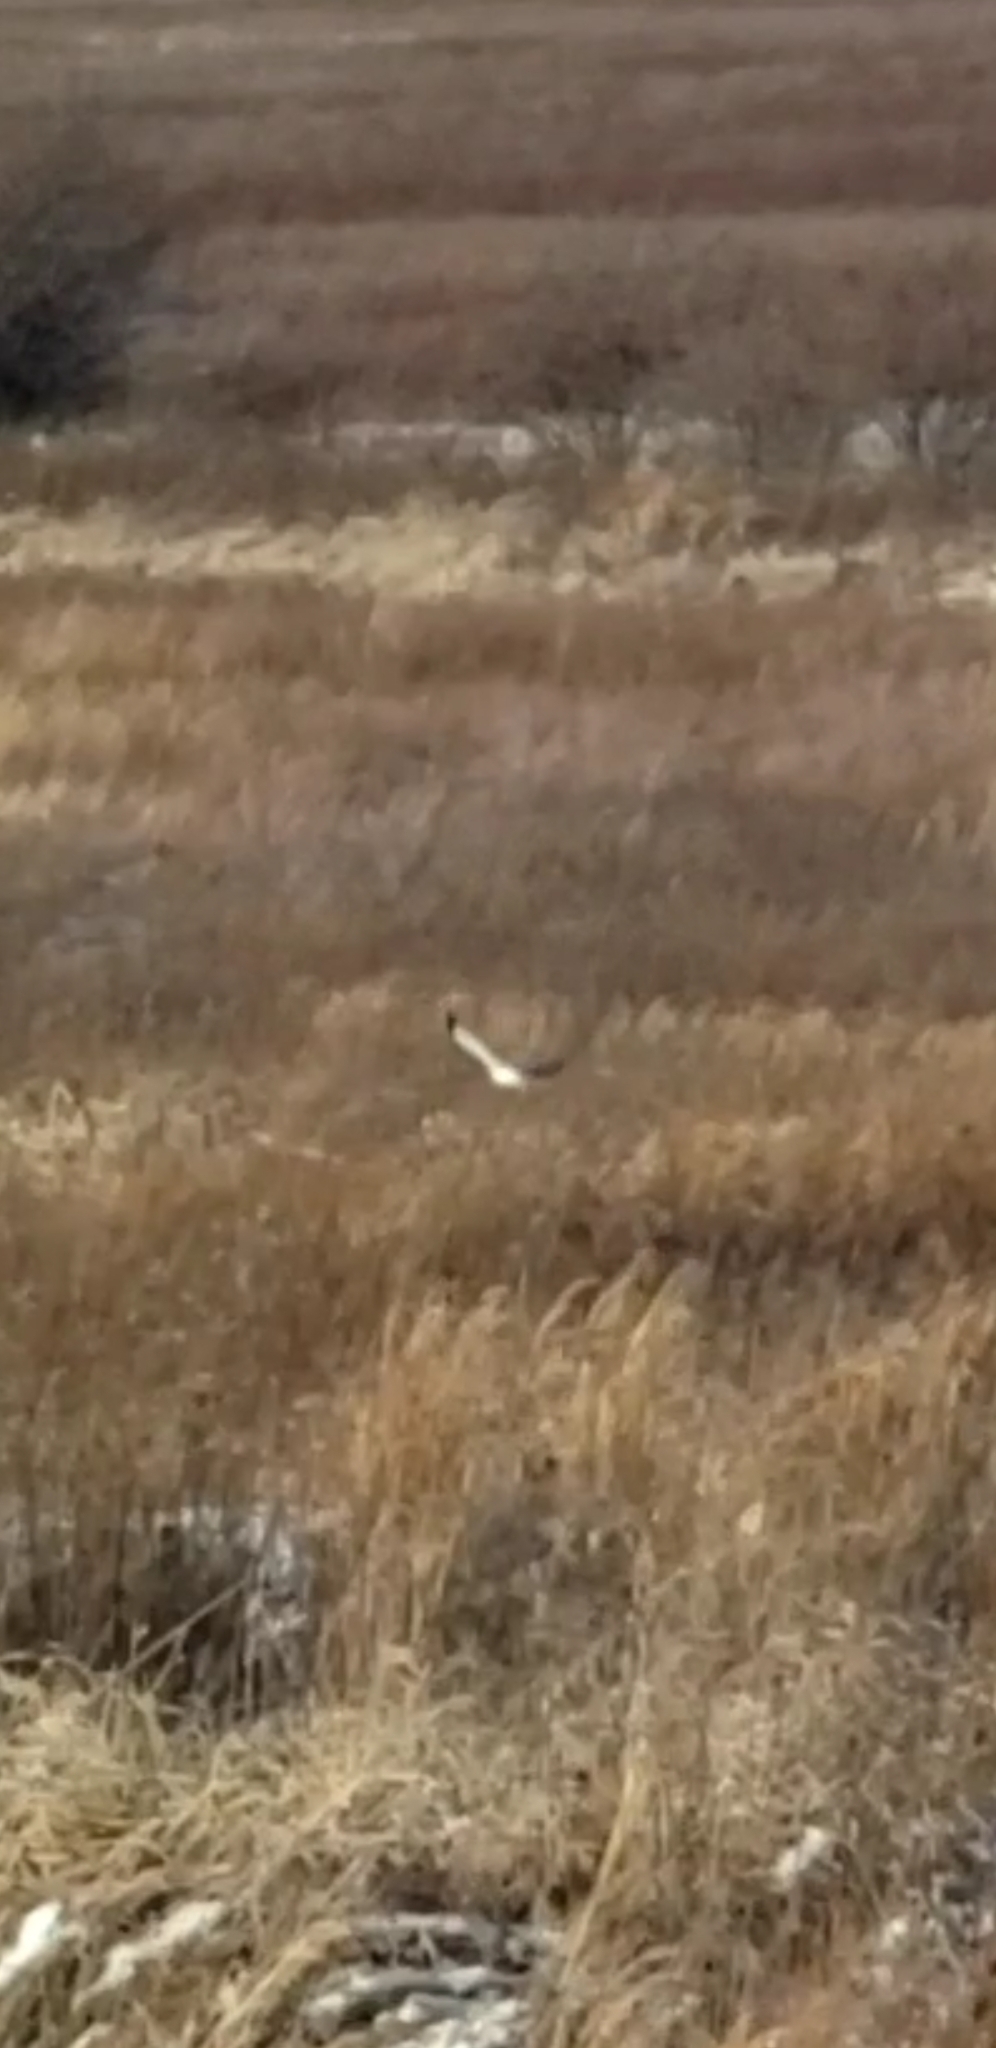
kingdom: Animalia
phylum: Chordata
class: Aves
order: Accipitriformes
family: Accipitridae
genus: Circus
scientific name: Circus cyaneus
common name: Hen harrier
